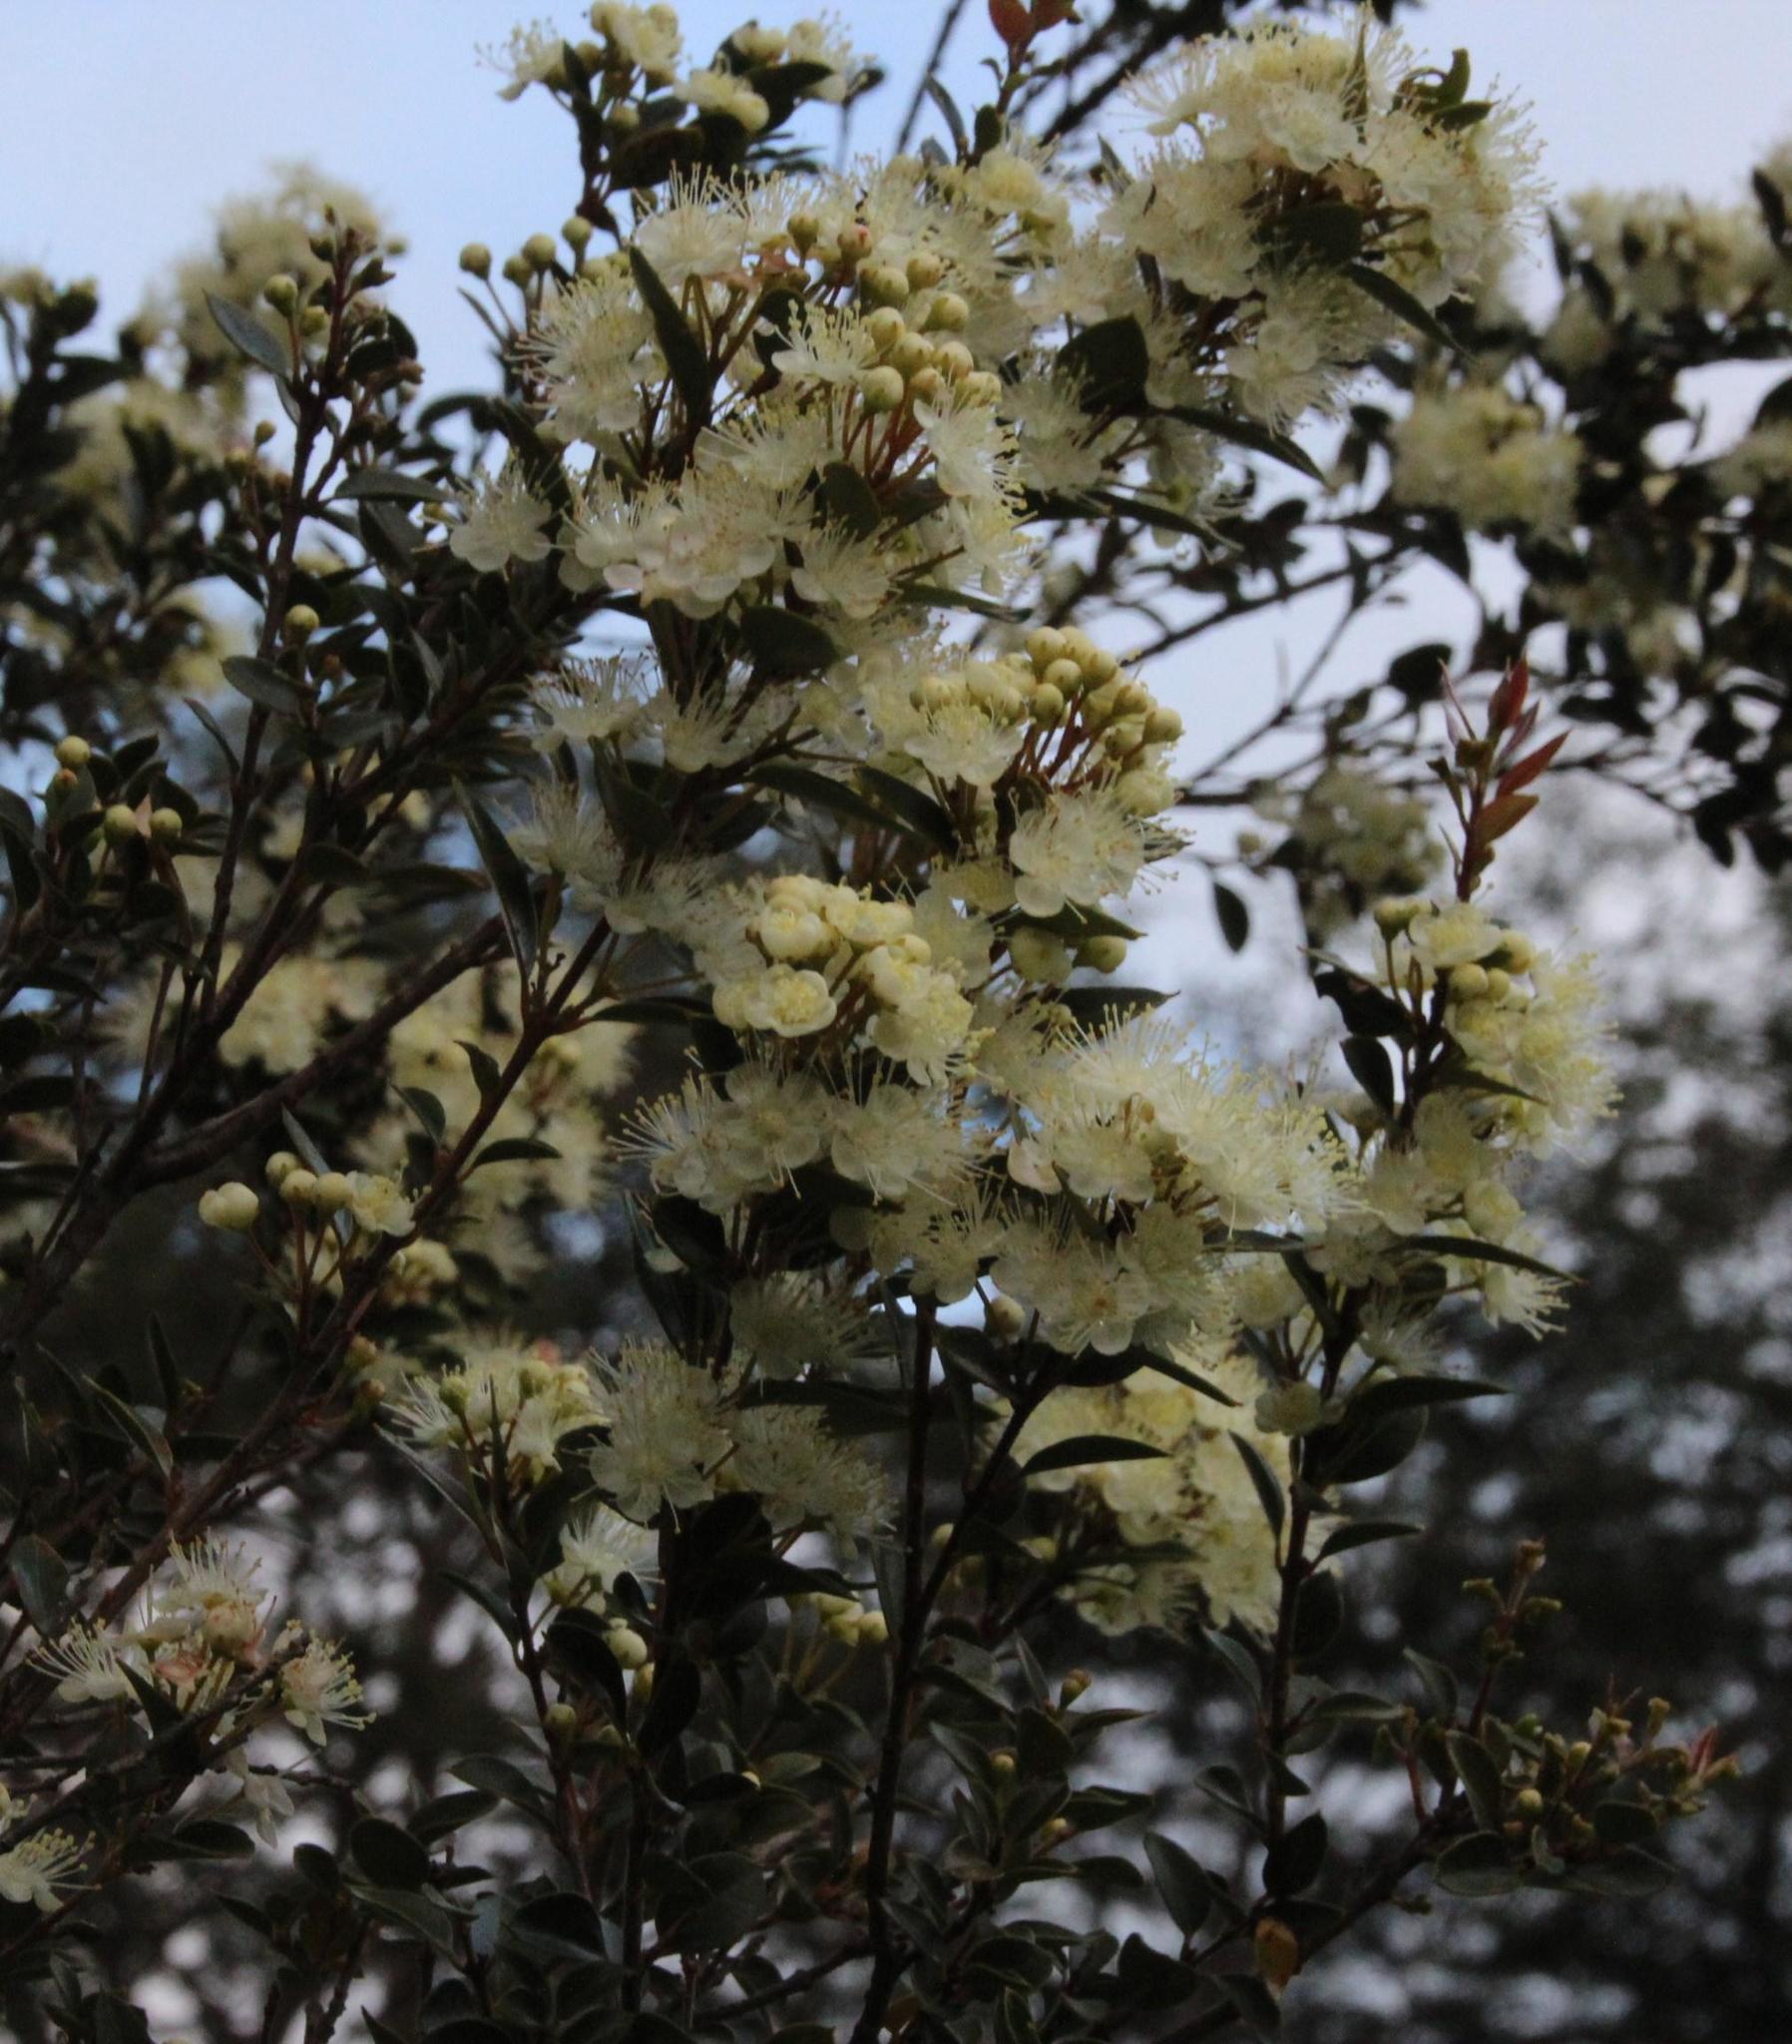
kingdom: Plantae
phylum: Tracheophyta
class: Magnoliopsida
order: Myrtales
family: Myrtaceae
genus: Amomyrtus
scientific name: Amomyrtus luma
